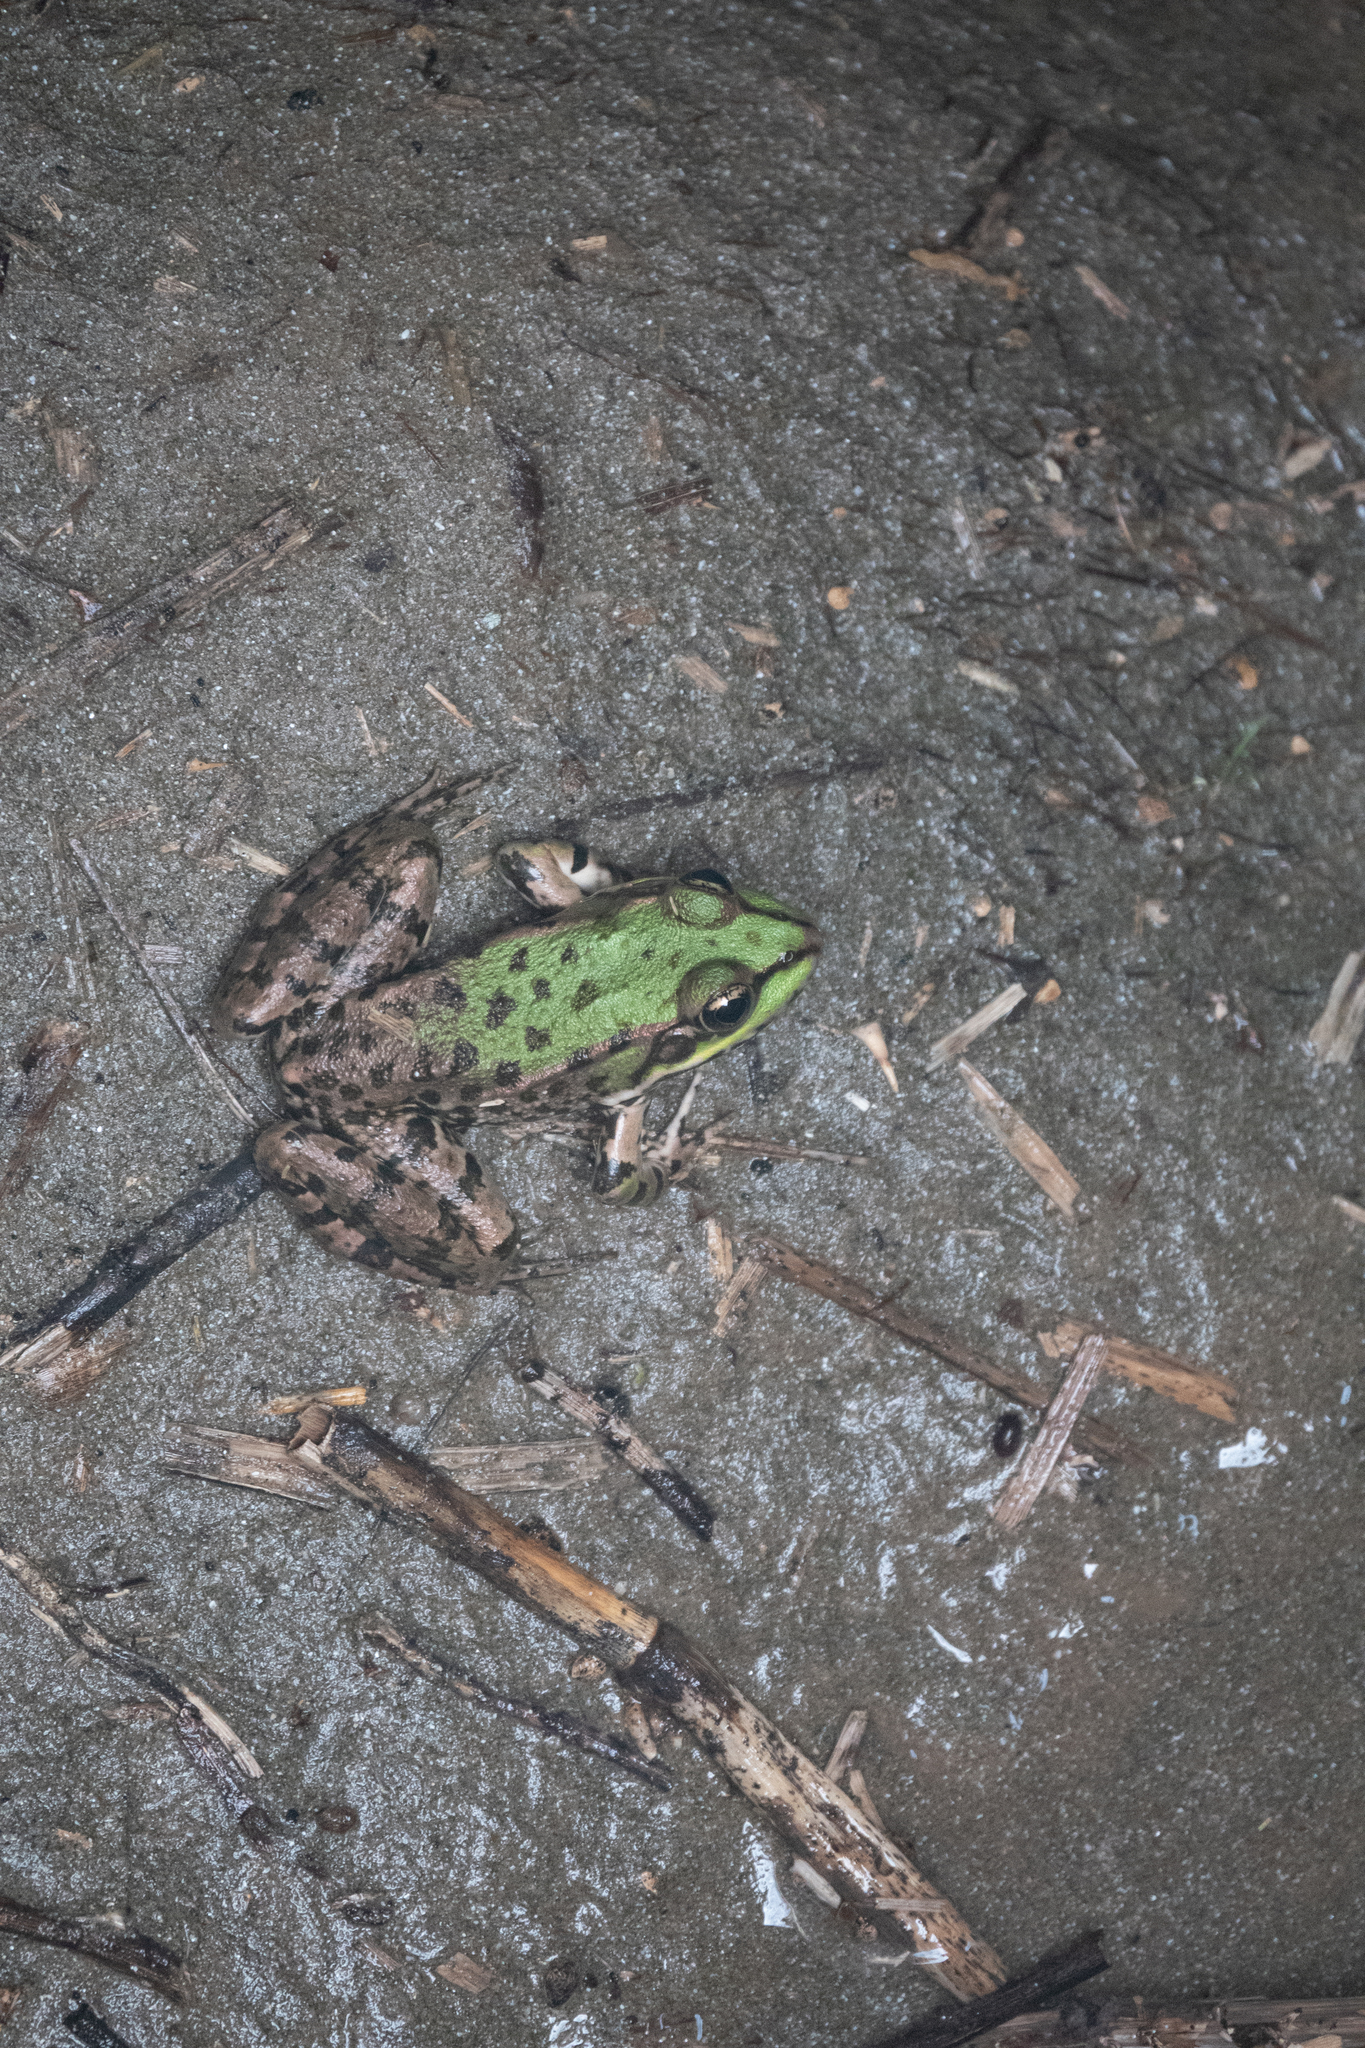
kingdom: Animalia
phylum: Chordata
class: Amphibia
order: Anura
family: Ranidae
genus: Pelophylax
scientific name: Pelophylax ridibundus
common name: Marsh frog
